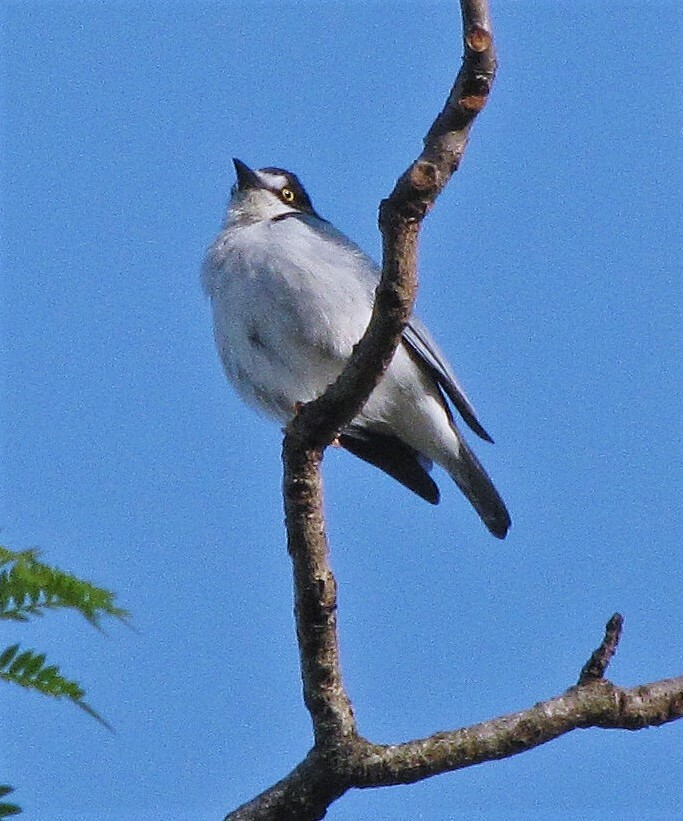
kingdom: Animalia
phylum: Chordata
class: Aves
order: Passeriformes
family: Thraupidae
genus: Nemosia
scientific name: Nemosia pileata
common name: Hooded tanager
